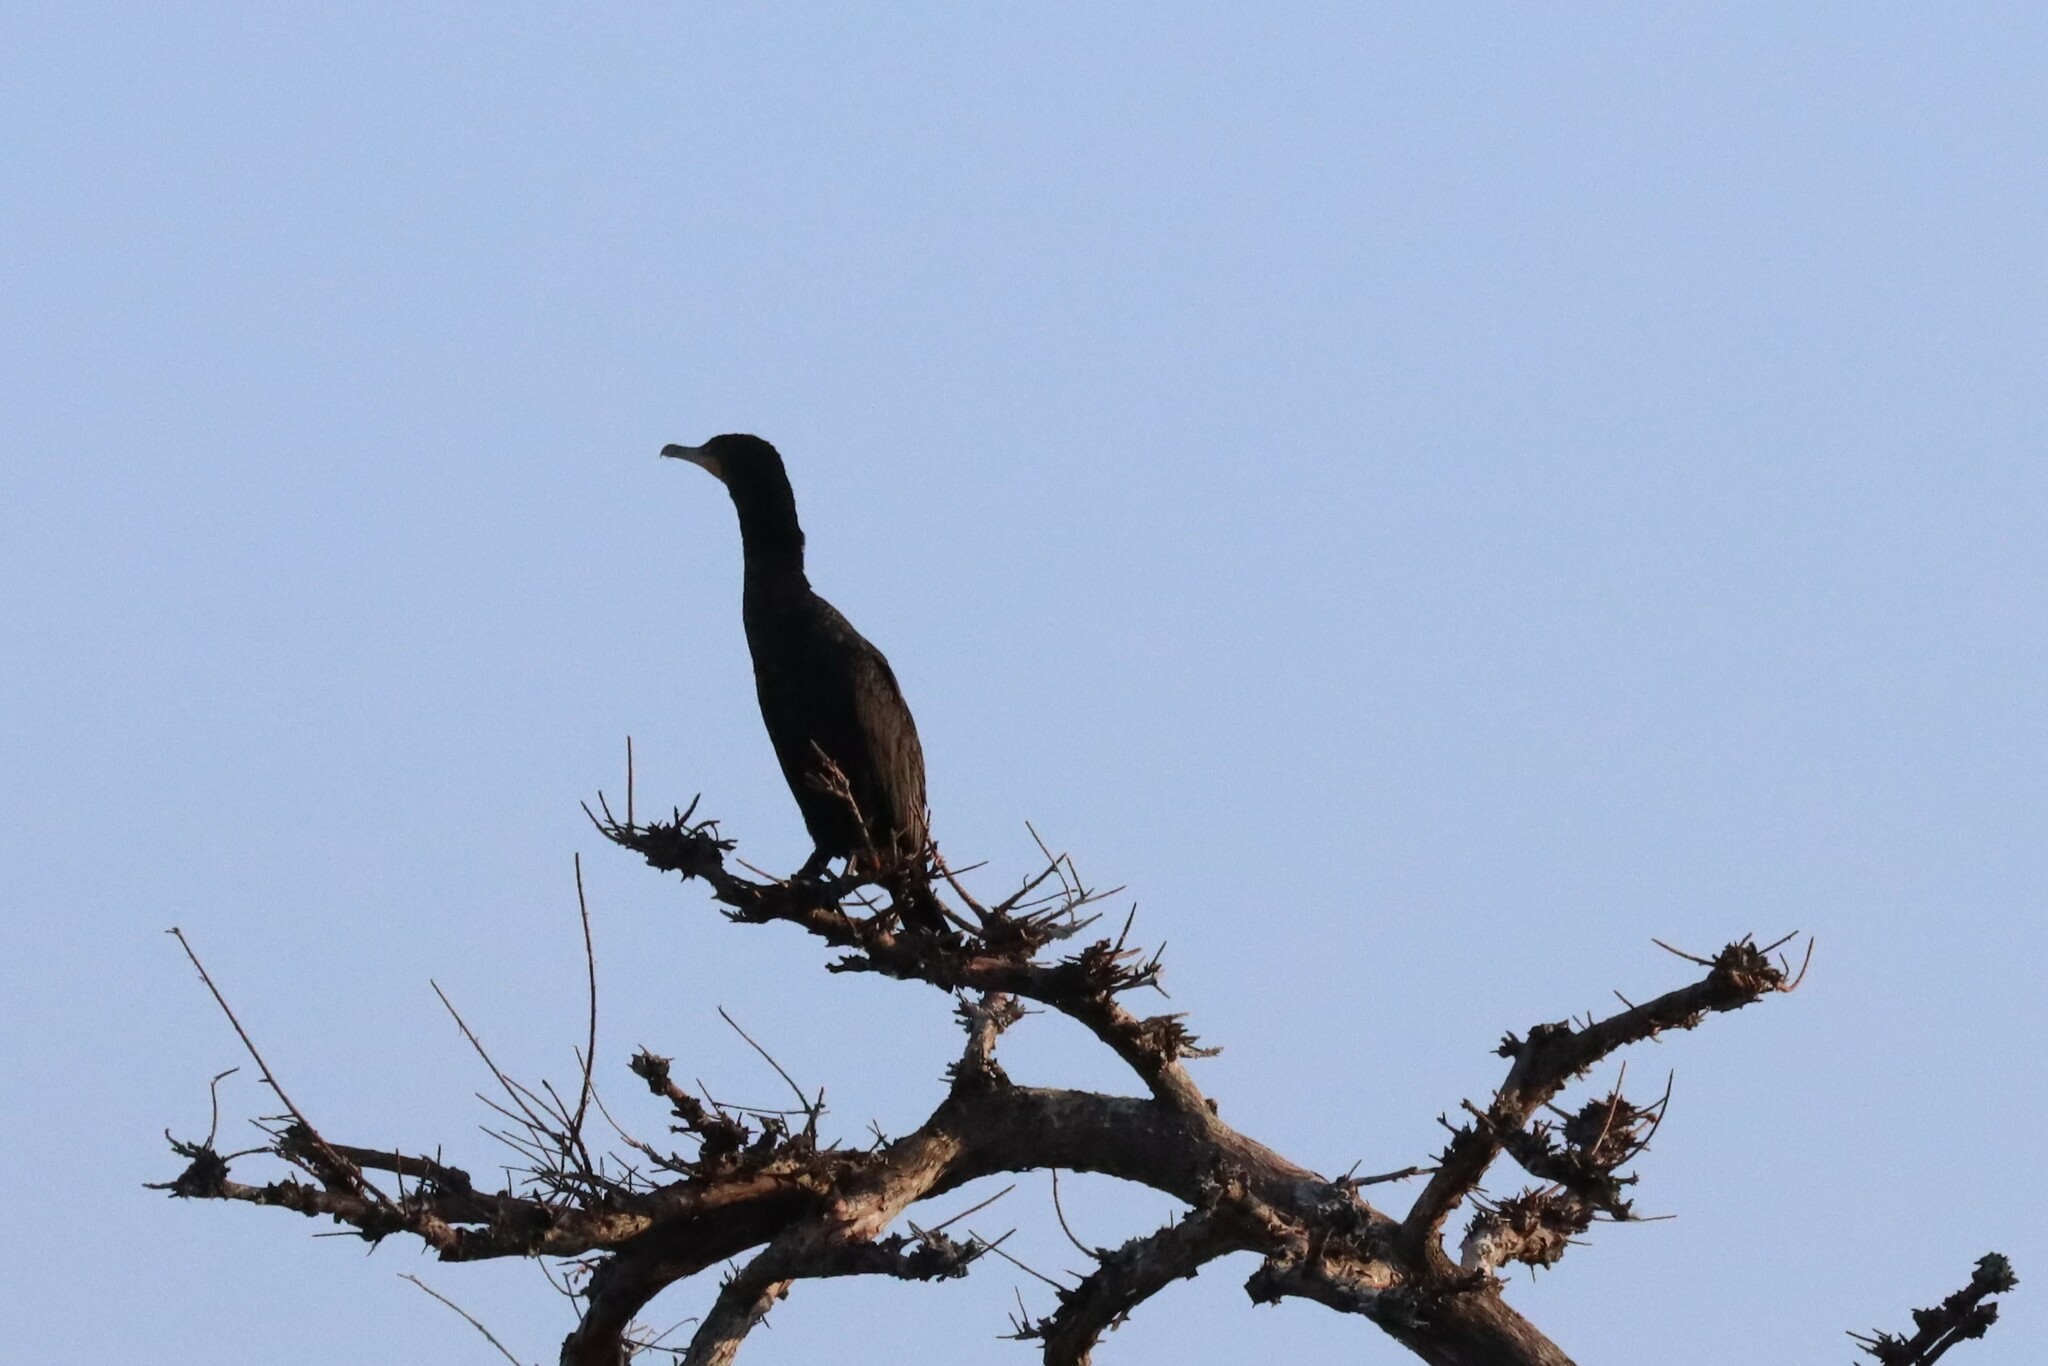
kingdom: Animalia
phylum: Chordata
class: Aves
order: Suliformes
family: Phalacrocoracidae
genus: Phalacrocorax
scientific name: Phalacrocorax brasilianus
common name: Neotropic cormorant
